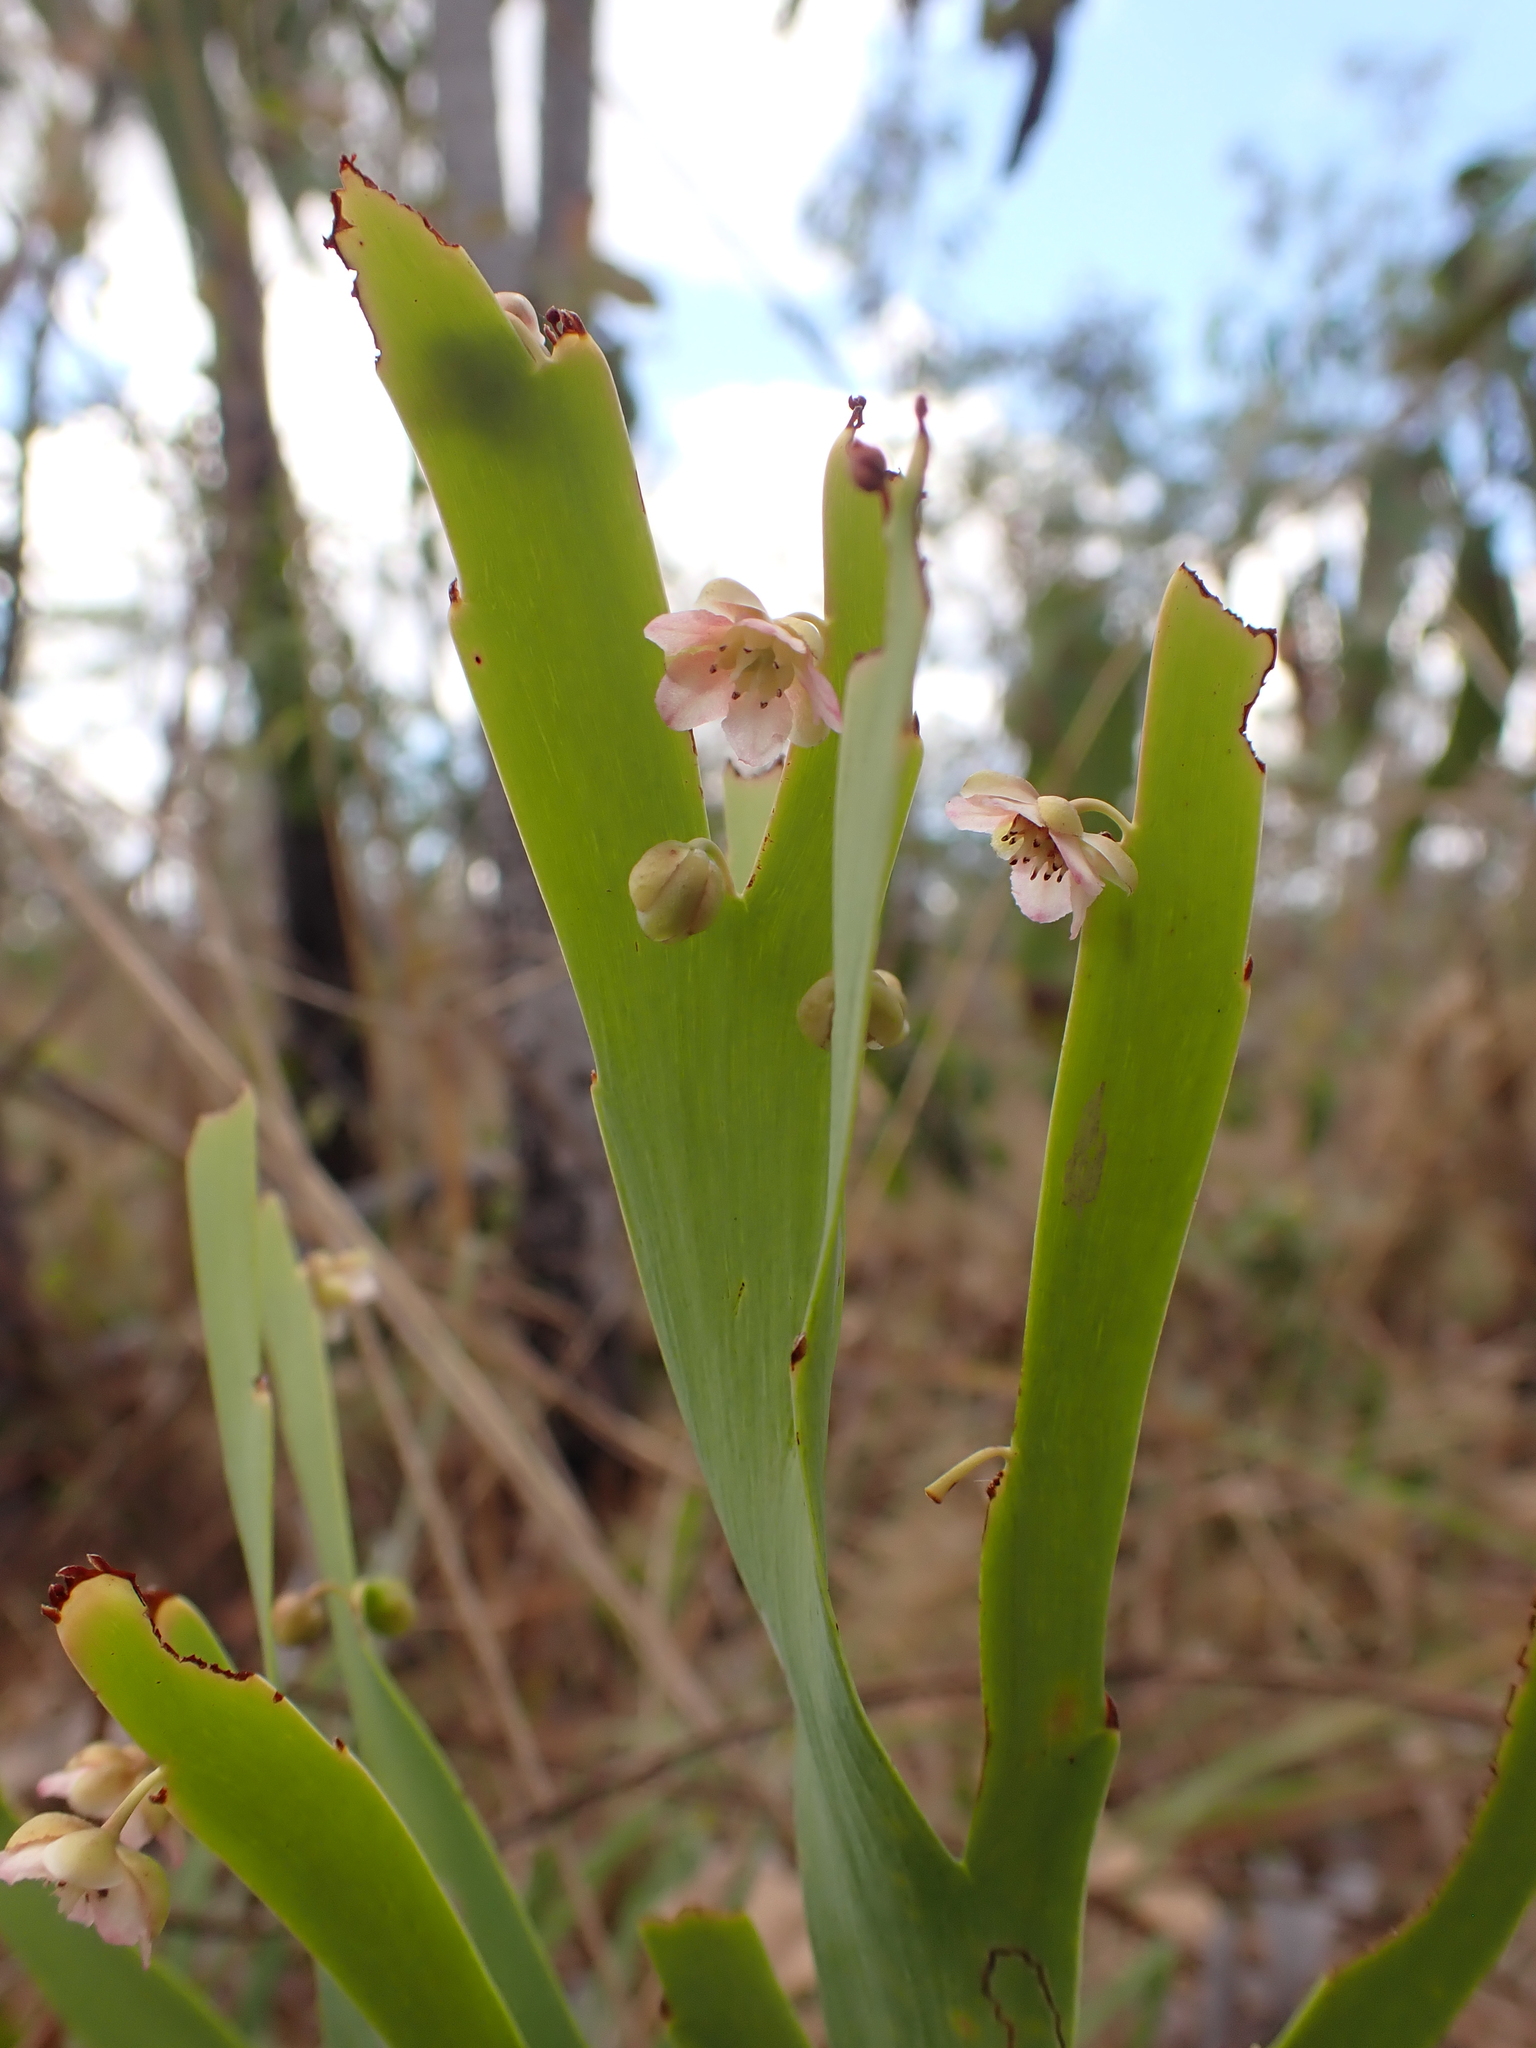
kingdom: Plantae
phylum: Tracheophyta
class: Magnoliopsida
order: Dilleniales
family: Dilleniaceae
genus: Hibbertia
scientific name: Hibbertia dilatata
